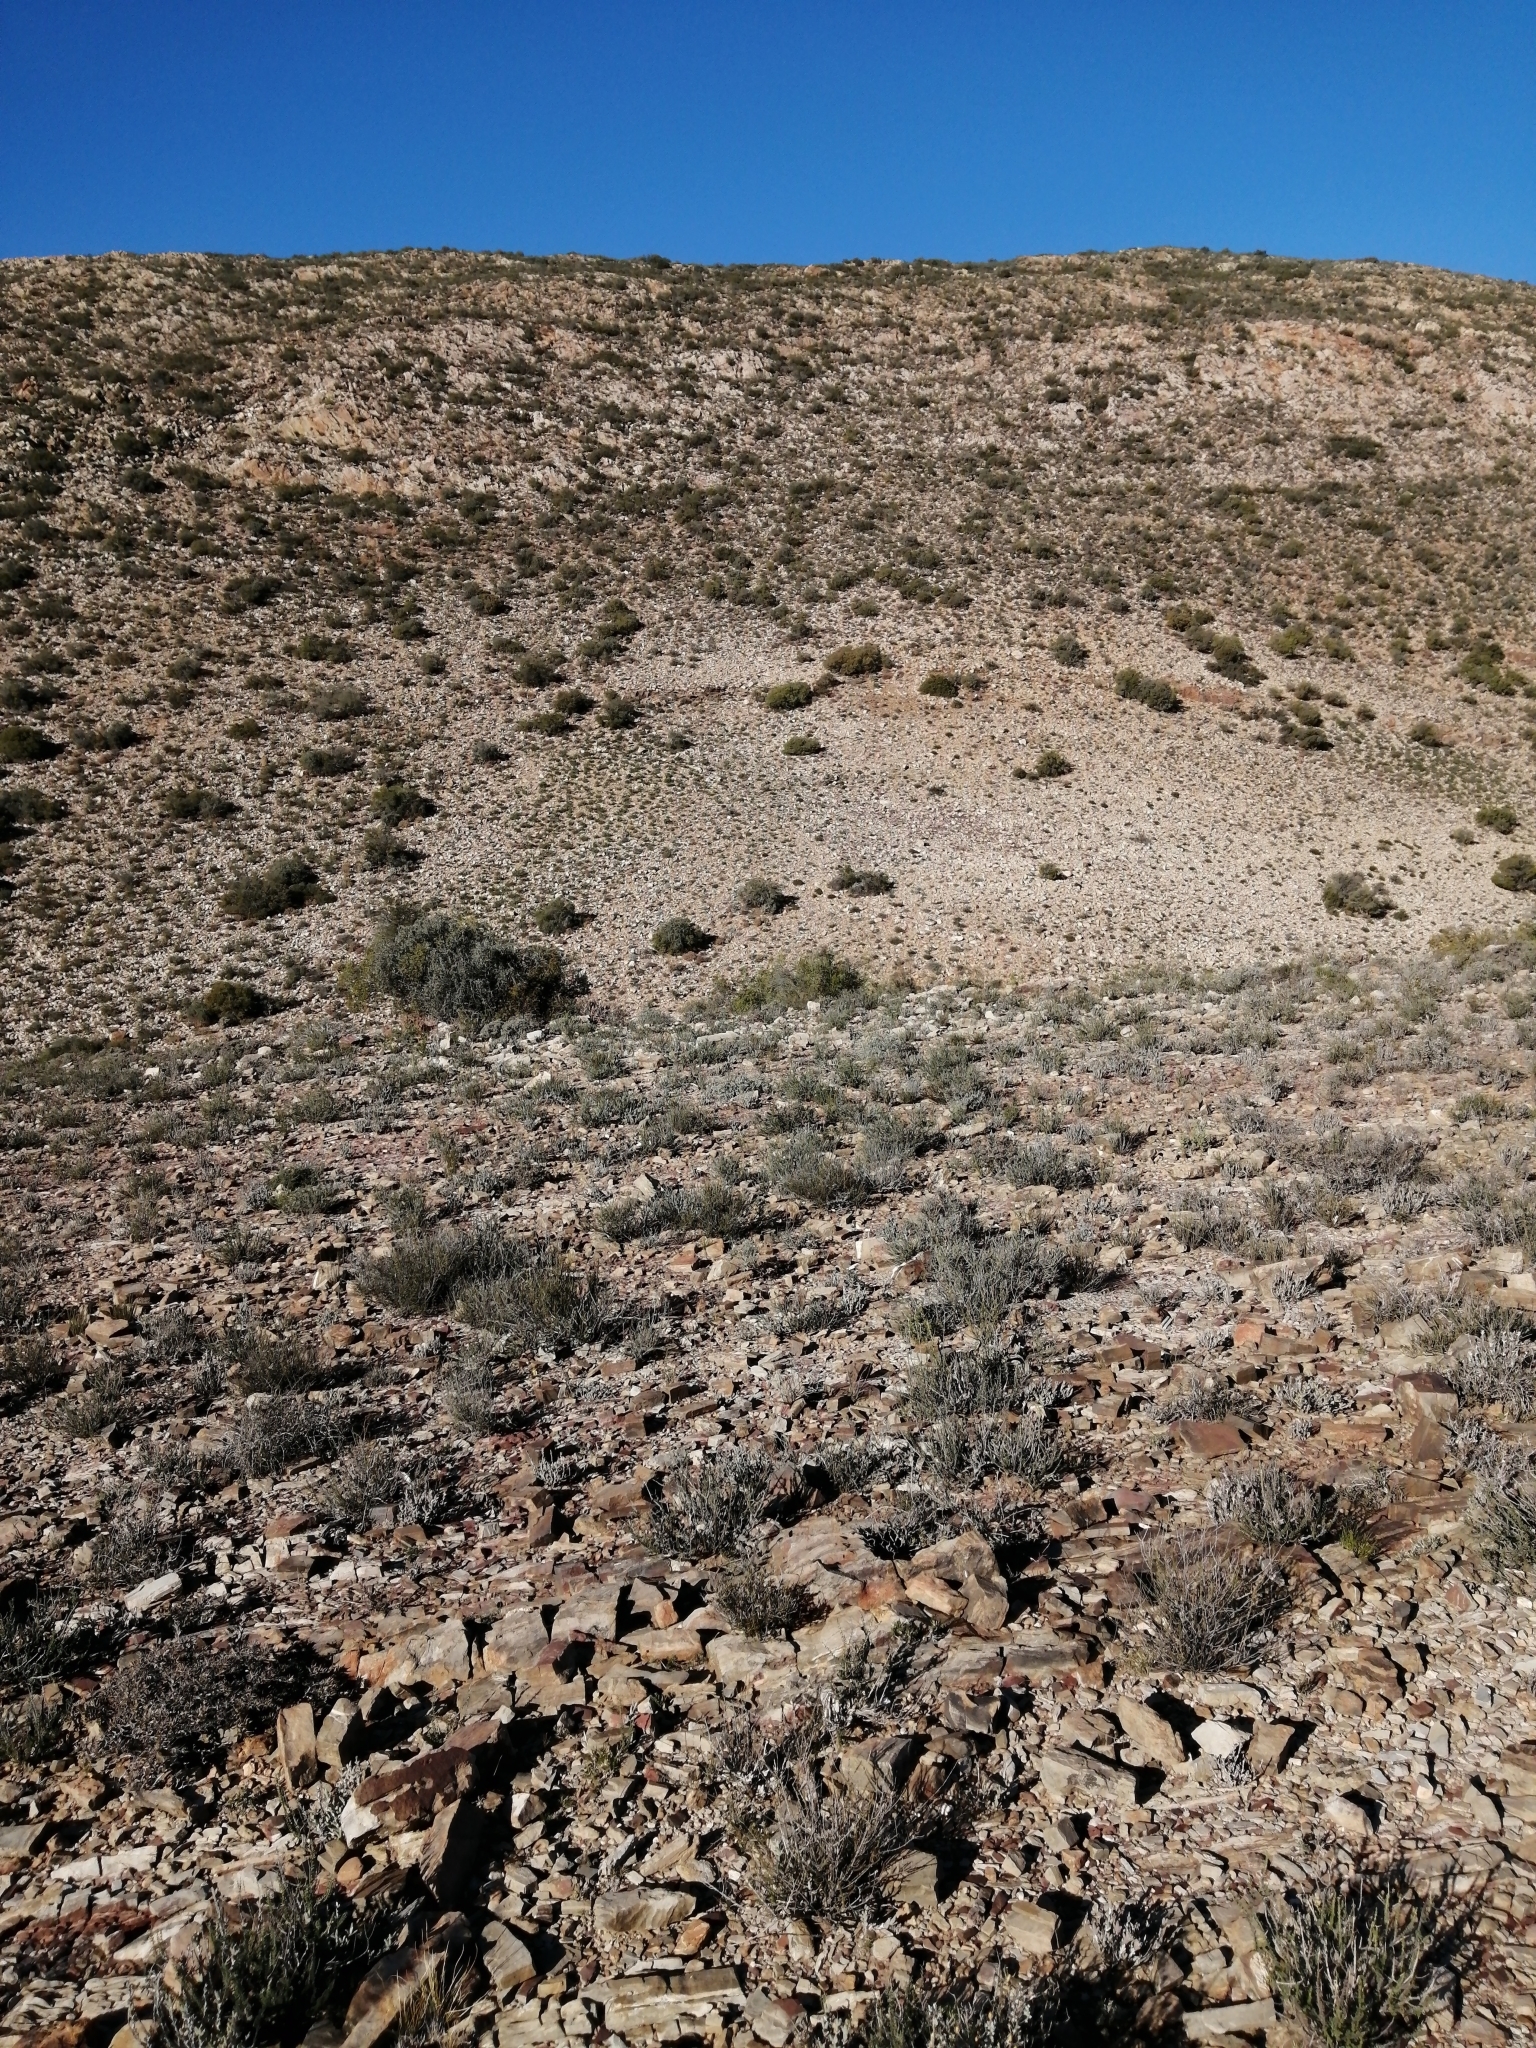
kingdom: Plantae
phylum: Tracheophyta
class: Magnoliopsida
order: Saxifragales
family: Crassulaceae
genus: Crassula
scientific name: Crassula atropurpurea
